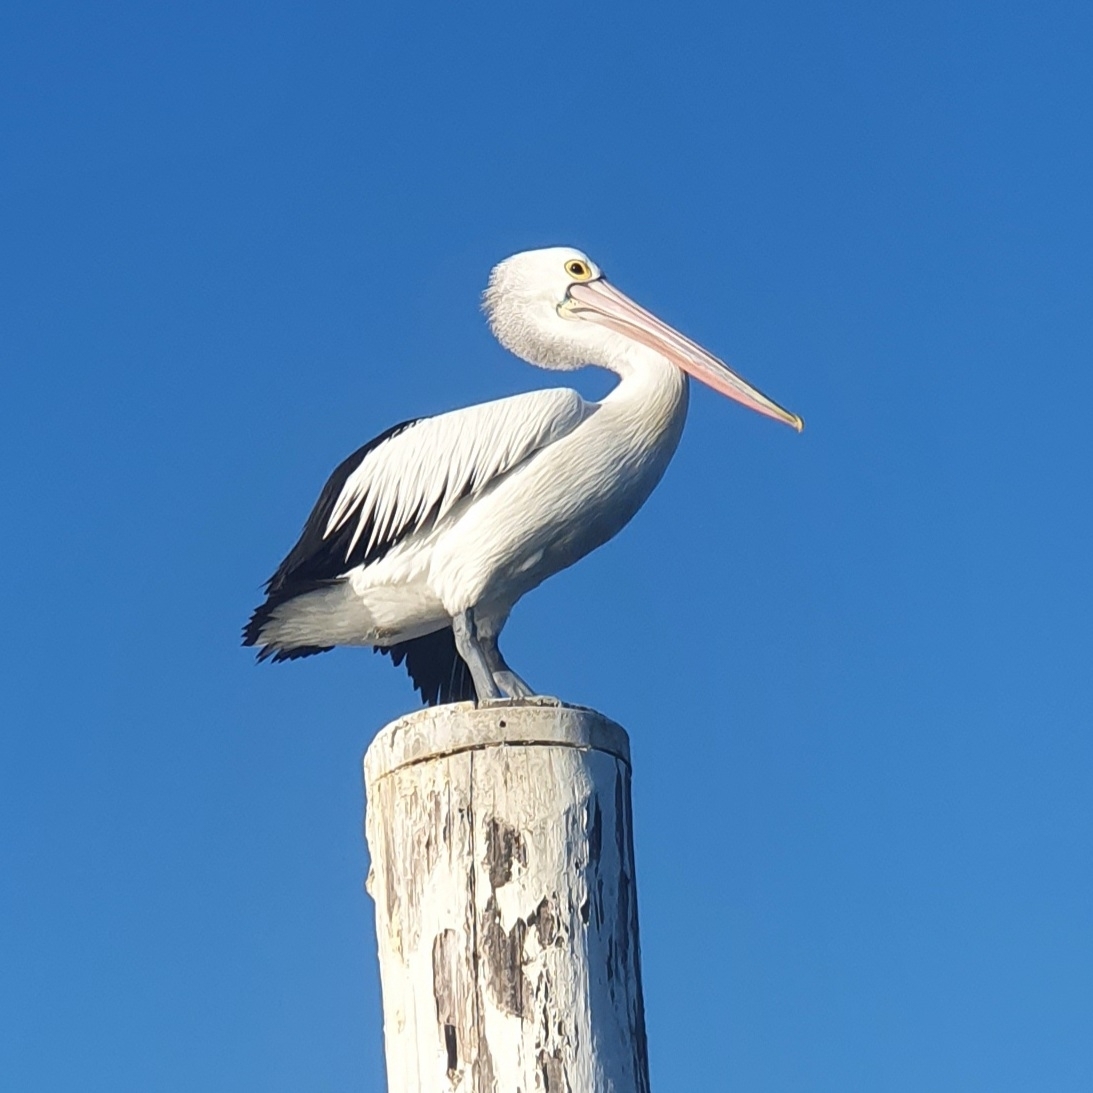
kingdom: Animalia
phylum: Chordata
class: Aves
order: Pelecaniformes
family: Pelecanidae
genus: Pelecanus
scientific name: Pelecanus conspicillatus
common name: Australian pelican
